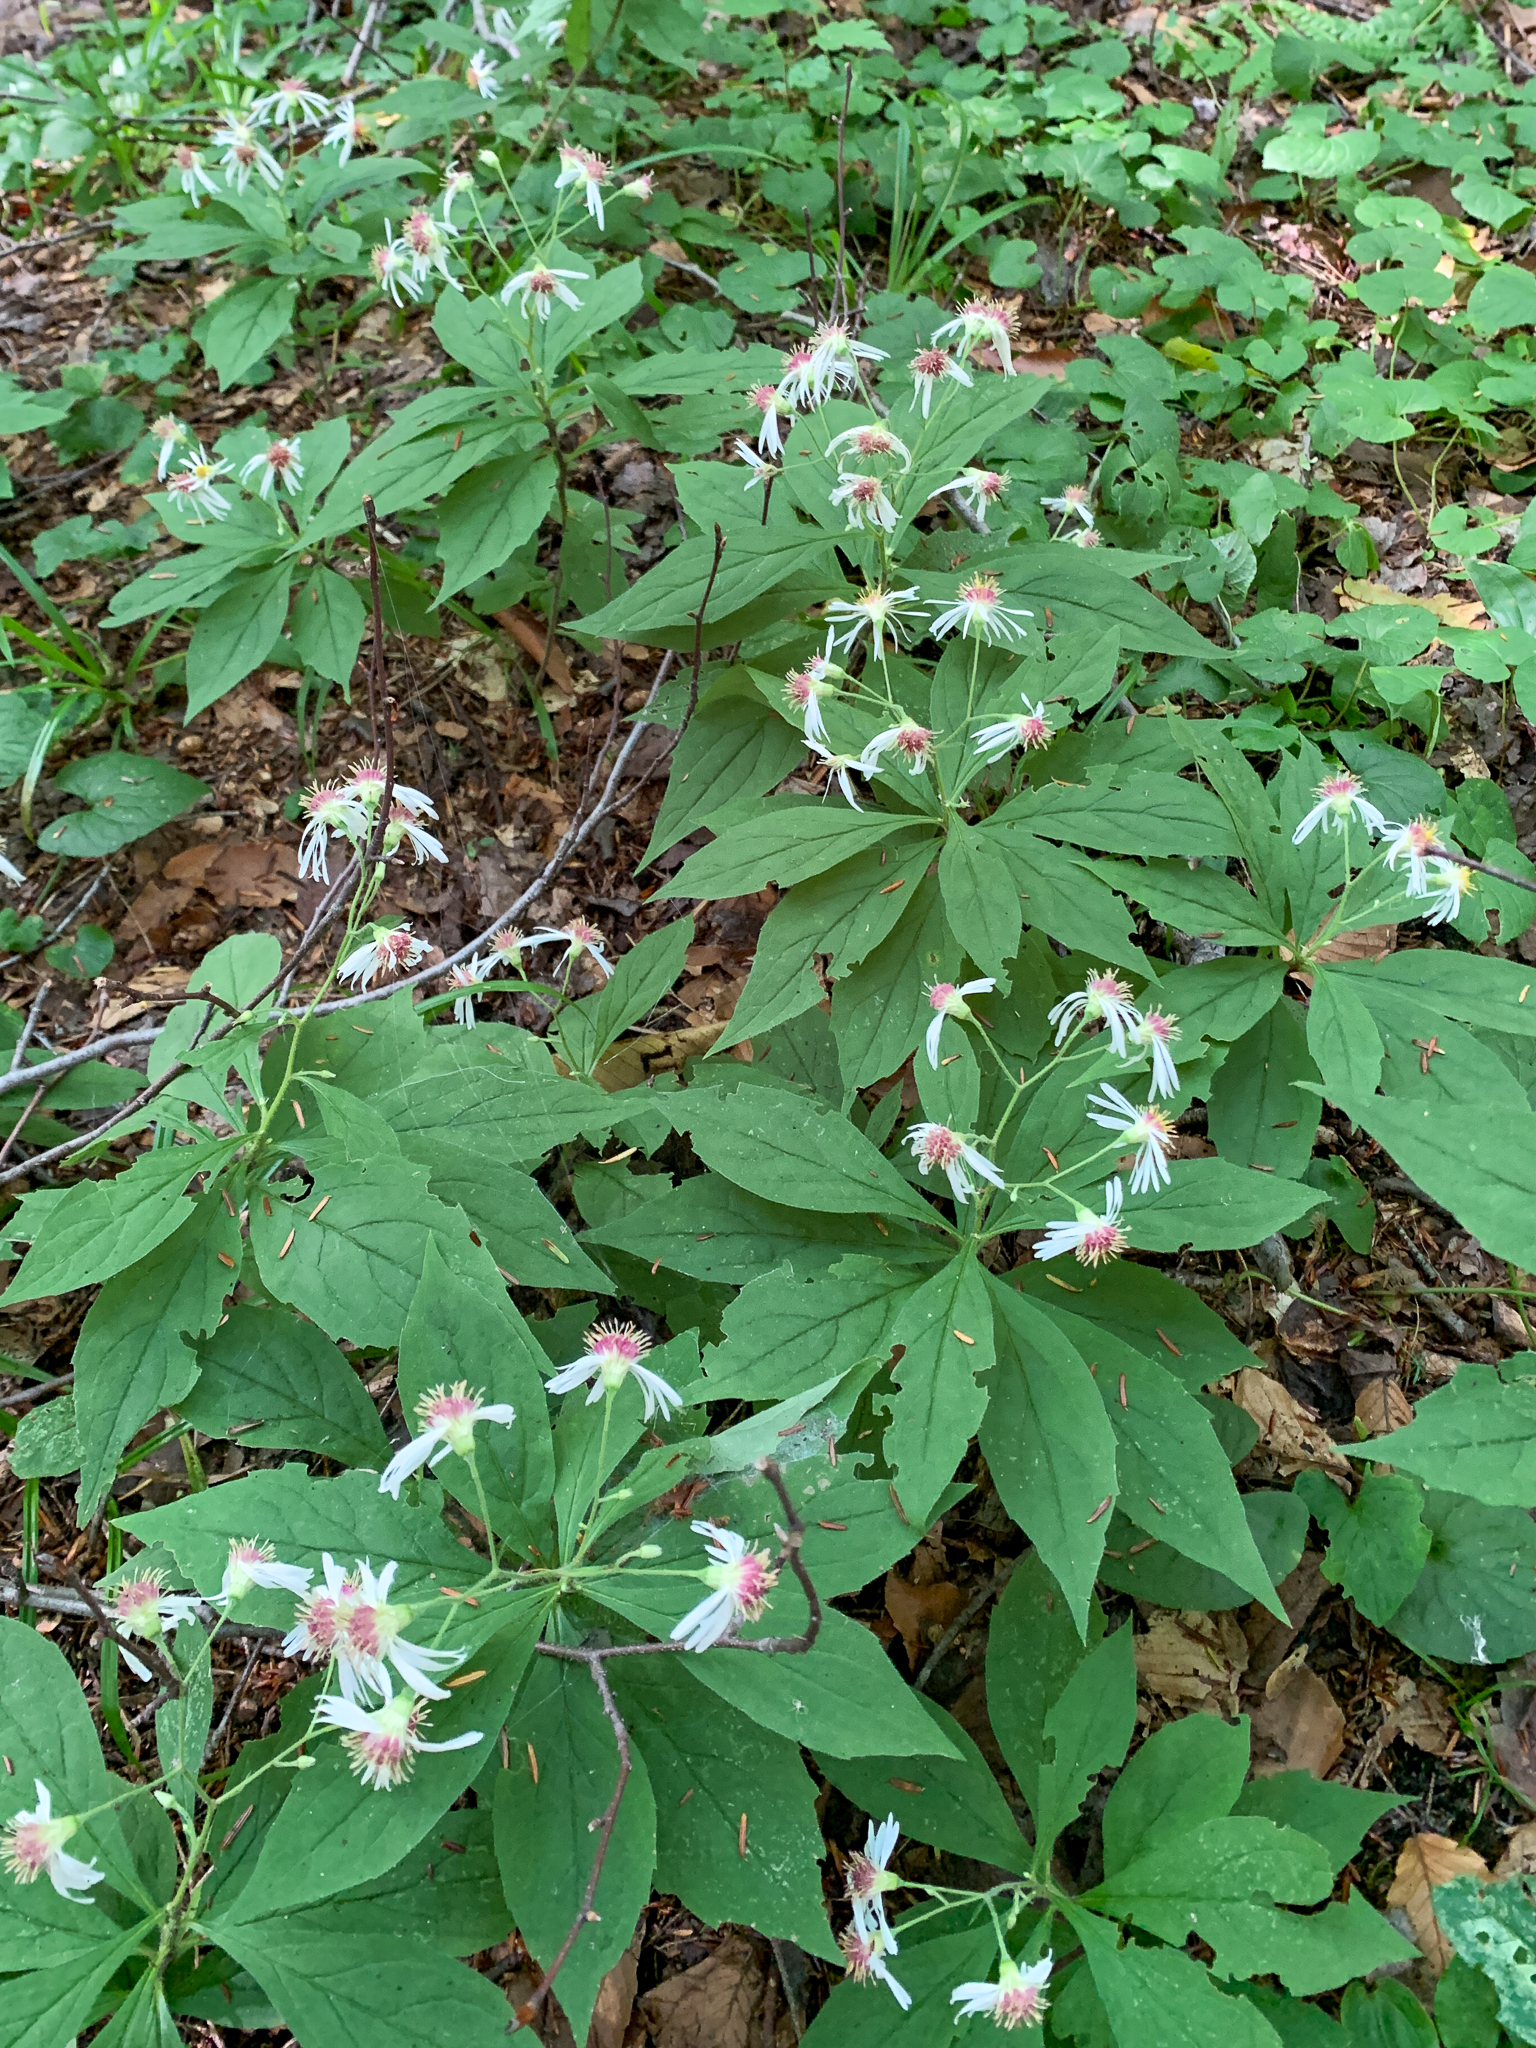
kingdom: Plantae
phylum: Tracheophyta
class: Magnoliopsida
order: Asterales
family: Asteraceae
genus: Oclemena
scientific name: Oclemena acuminata
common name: Mountain aster
